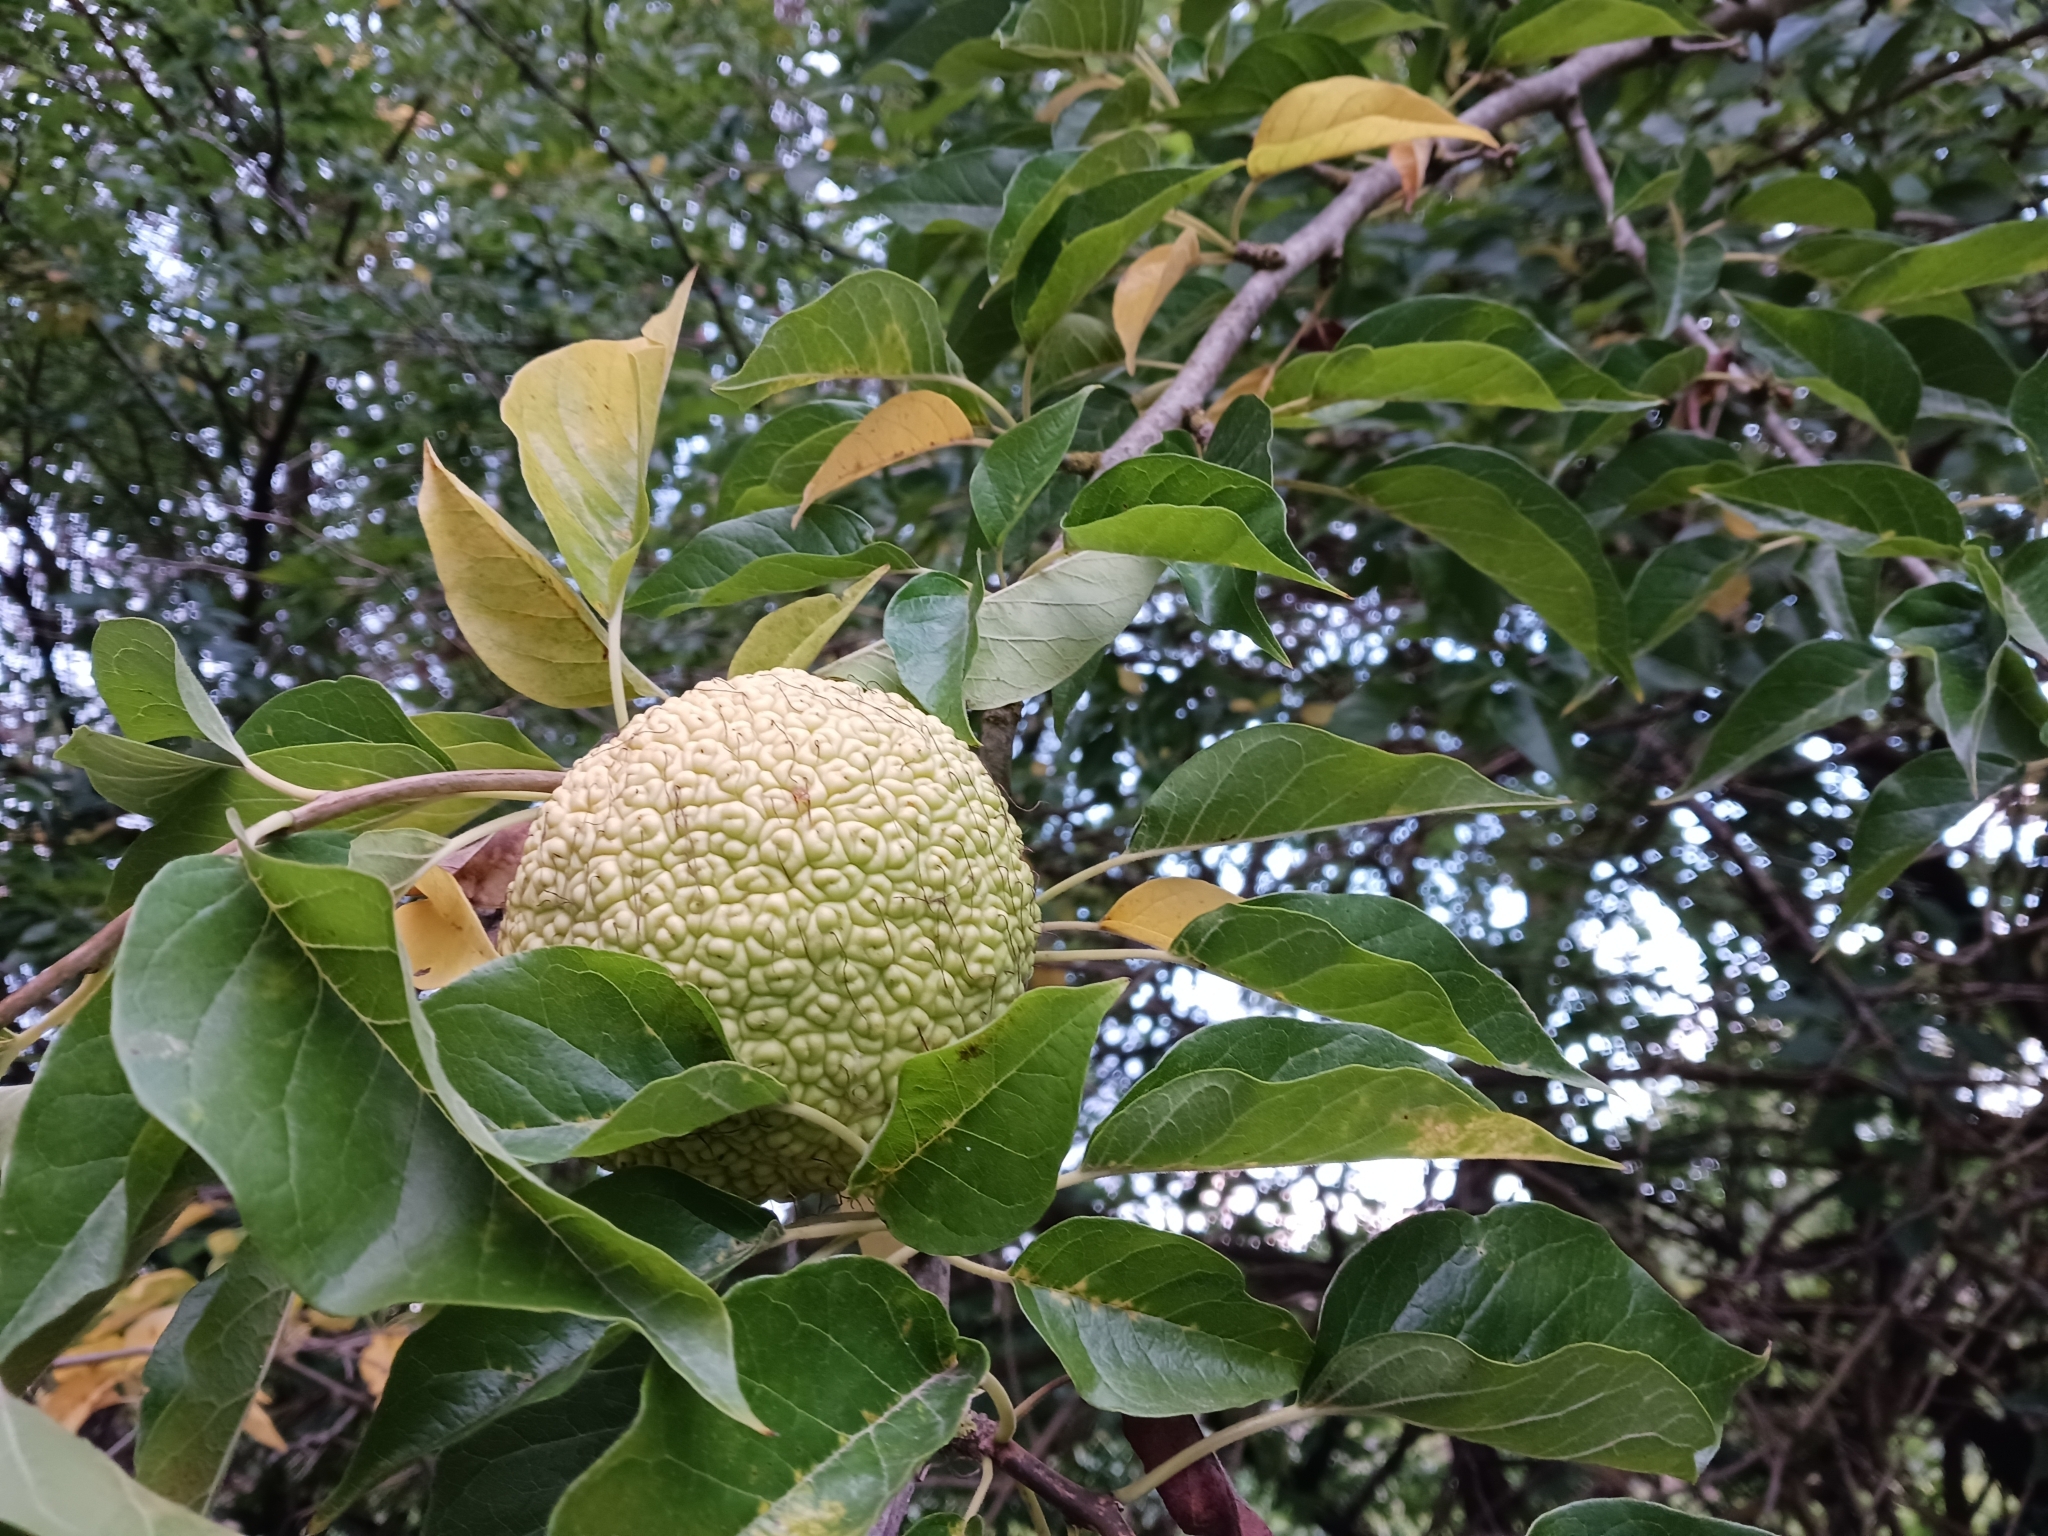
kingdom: Plantae
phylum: Tracheophyta
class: Magnoliopsida
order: Rosales
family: Moraceae
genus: Maclura
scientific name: Maclura pomifera
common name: Osage-orange
